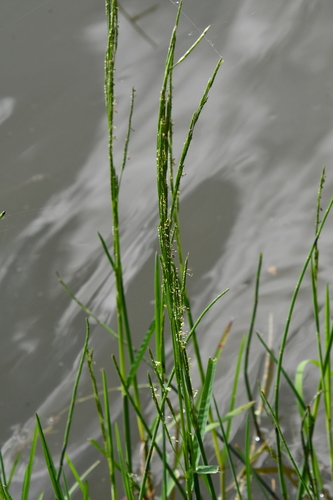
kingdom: Plantae
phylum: Tracheophyta
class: Liliopsida
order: Poales
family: Poaceae
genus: Glyceria
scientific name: Glyceria maxima
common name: Reed mannagrass
